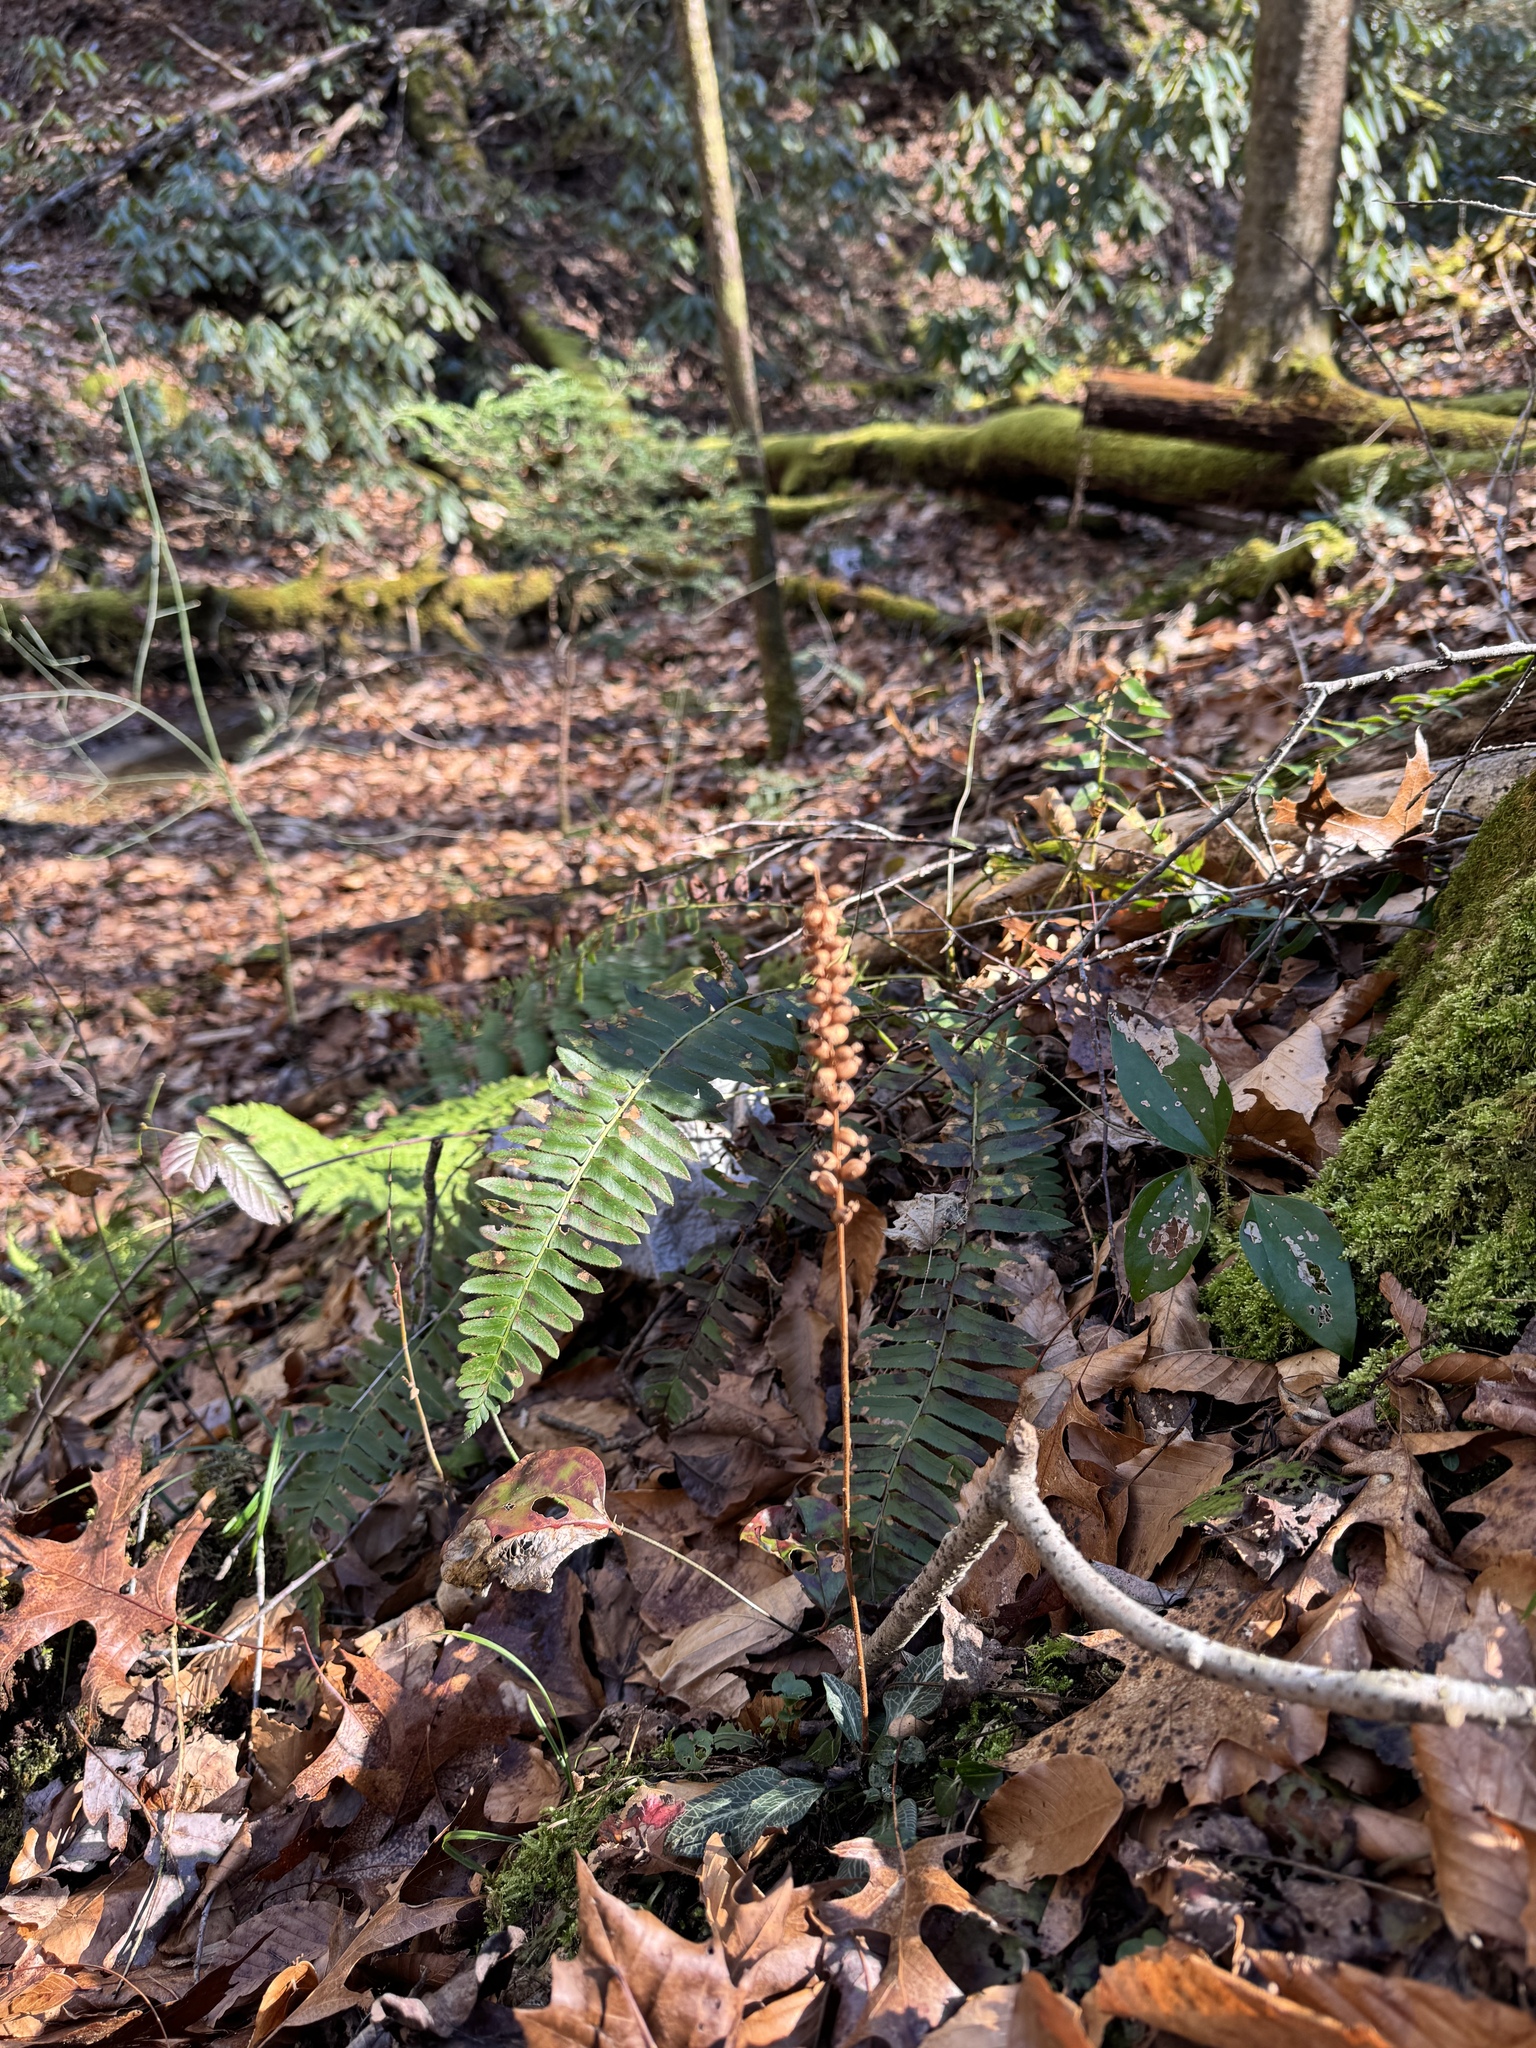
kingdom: Plantae
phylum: Tracheophyta
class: Liliopsida
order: Asparagales
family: Orchidaceae
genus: Goodyera
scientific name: Goodyera pubescens
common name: Downy rattlesnake-plantain
